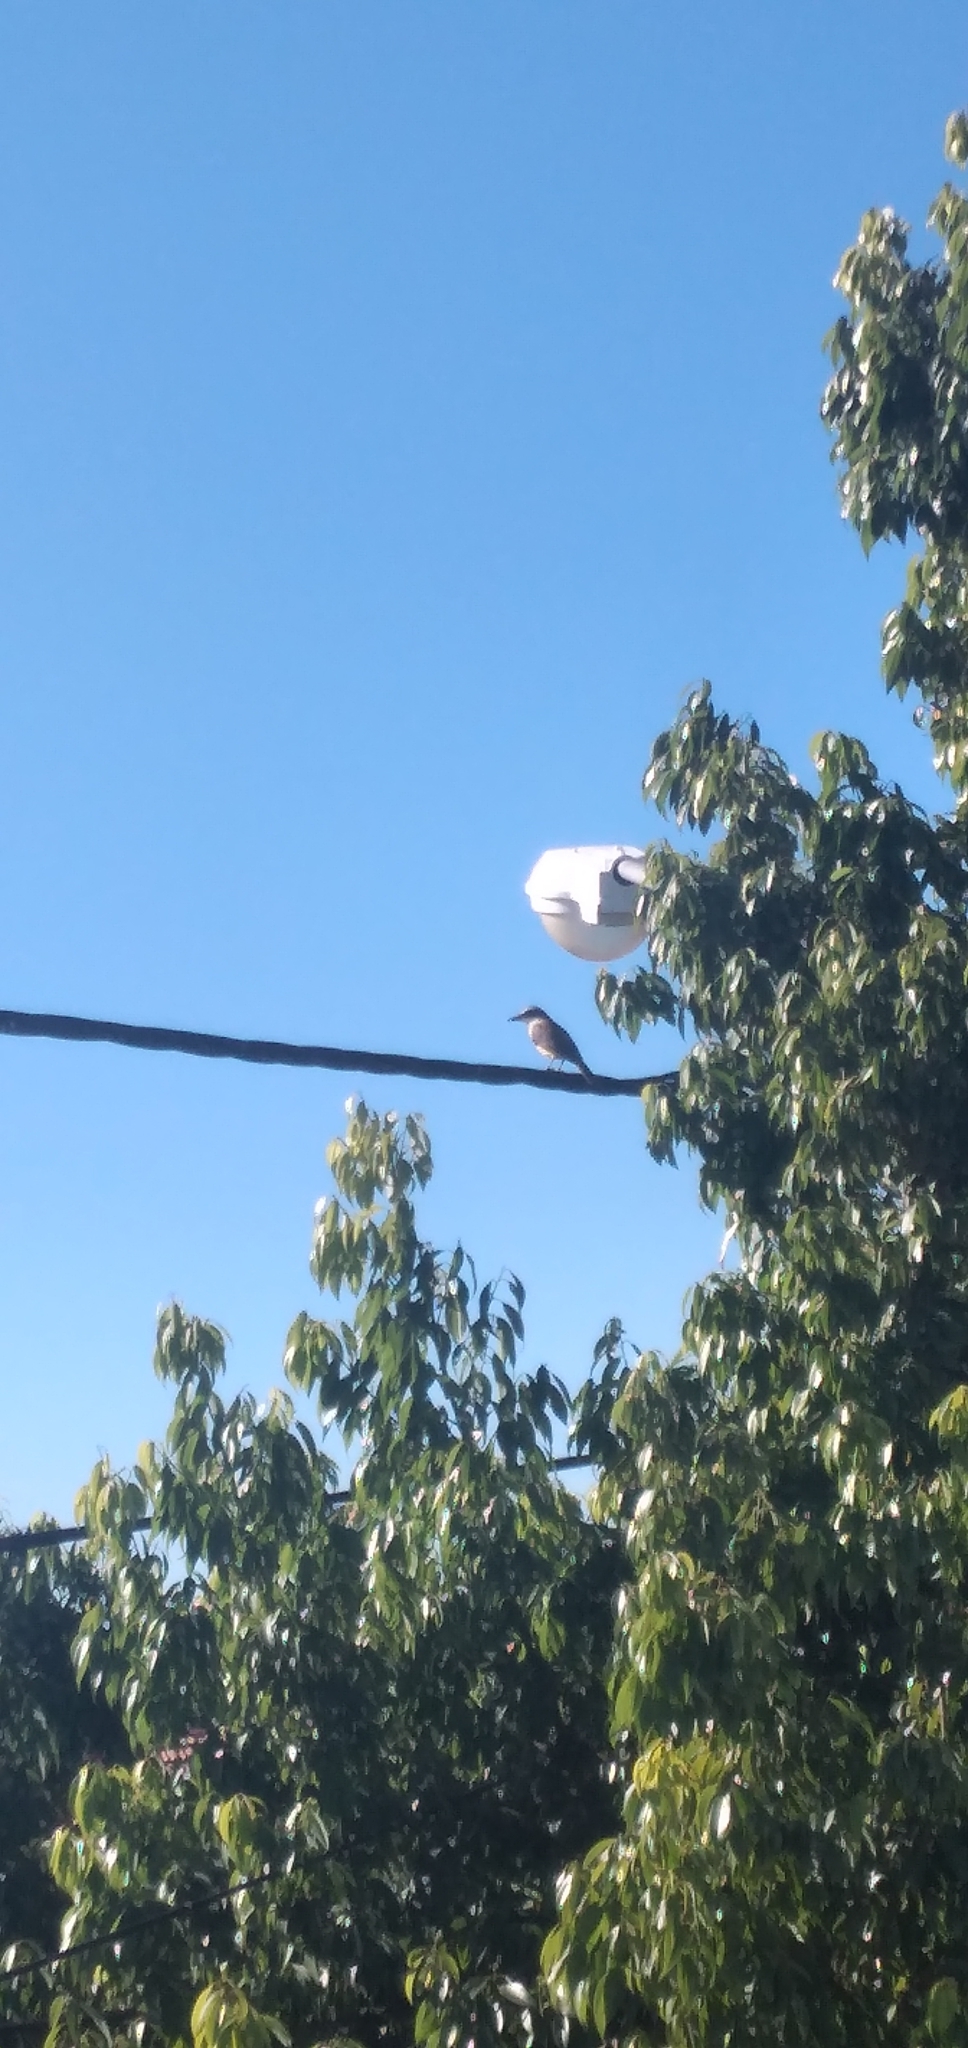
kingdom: Animalia
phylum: Chordata
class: Aves
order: Passeriformes
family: Tyrannidae
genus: Pitangus
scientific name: Pitangus sulphuratus
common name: Great kiskadee
